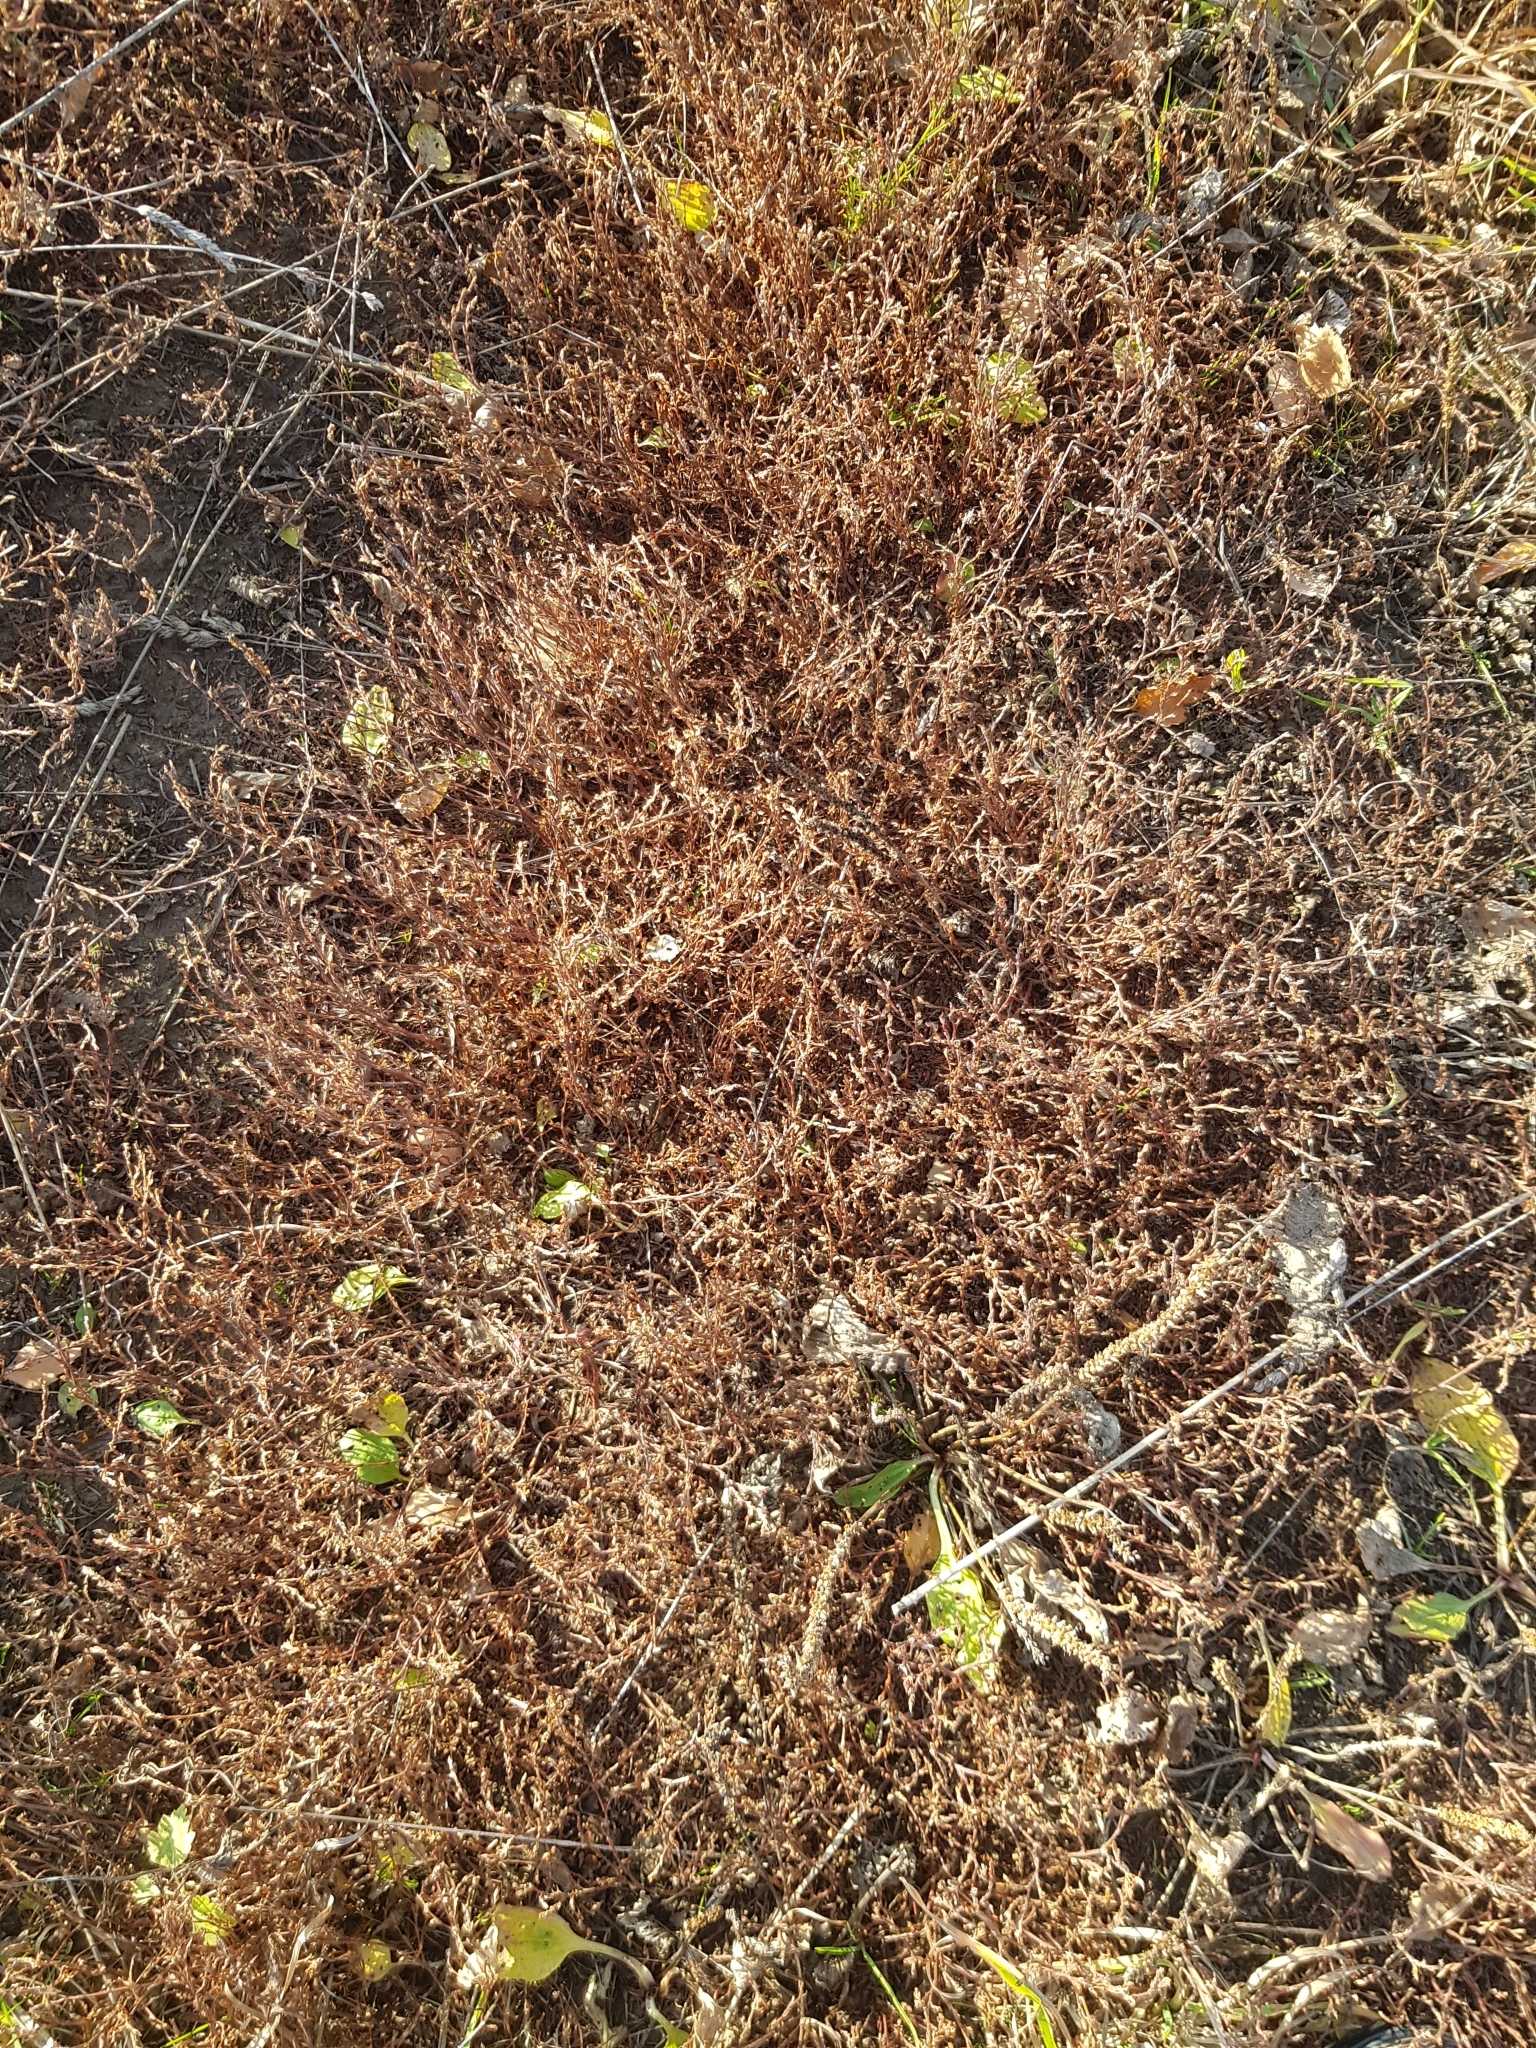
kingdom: Plantae
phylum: Tracheophyta
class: Magnoliopsida
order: Caryophyllales
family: Polygonaceae
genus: Polygonum
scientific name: Polygonum
